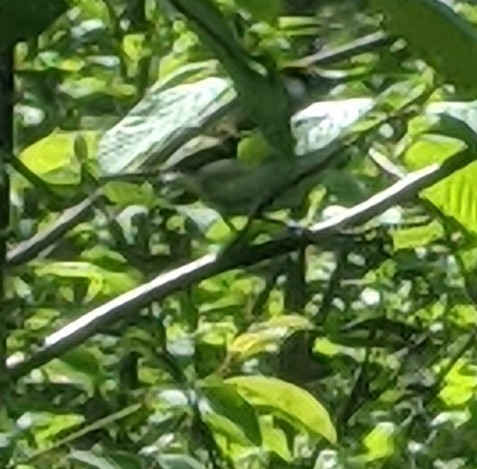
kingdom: Animalia
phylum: Chordata
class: Aves
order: Passeriformes
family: Parulidae
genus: Setophaga
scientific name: Setophaga pensylvanica
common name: Chestnut-sided warbler
